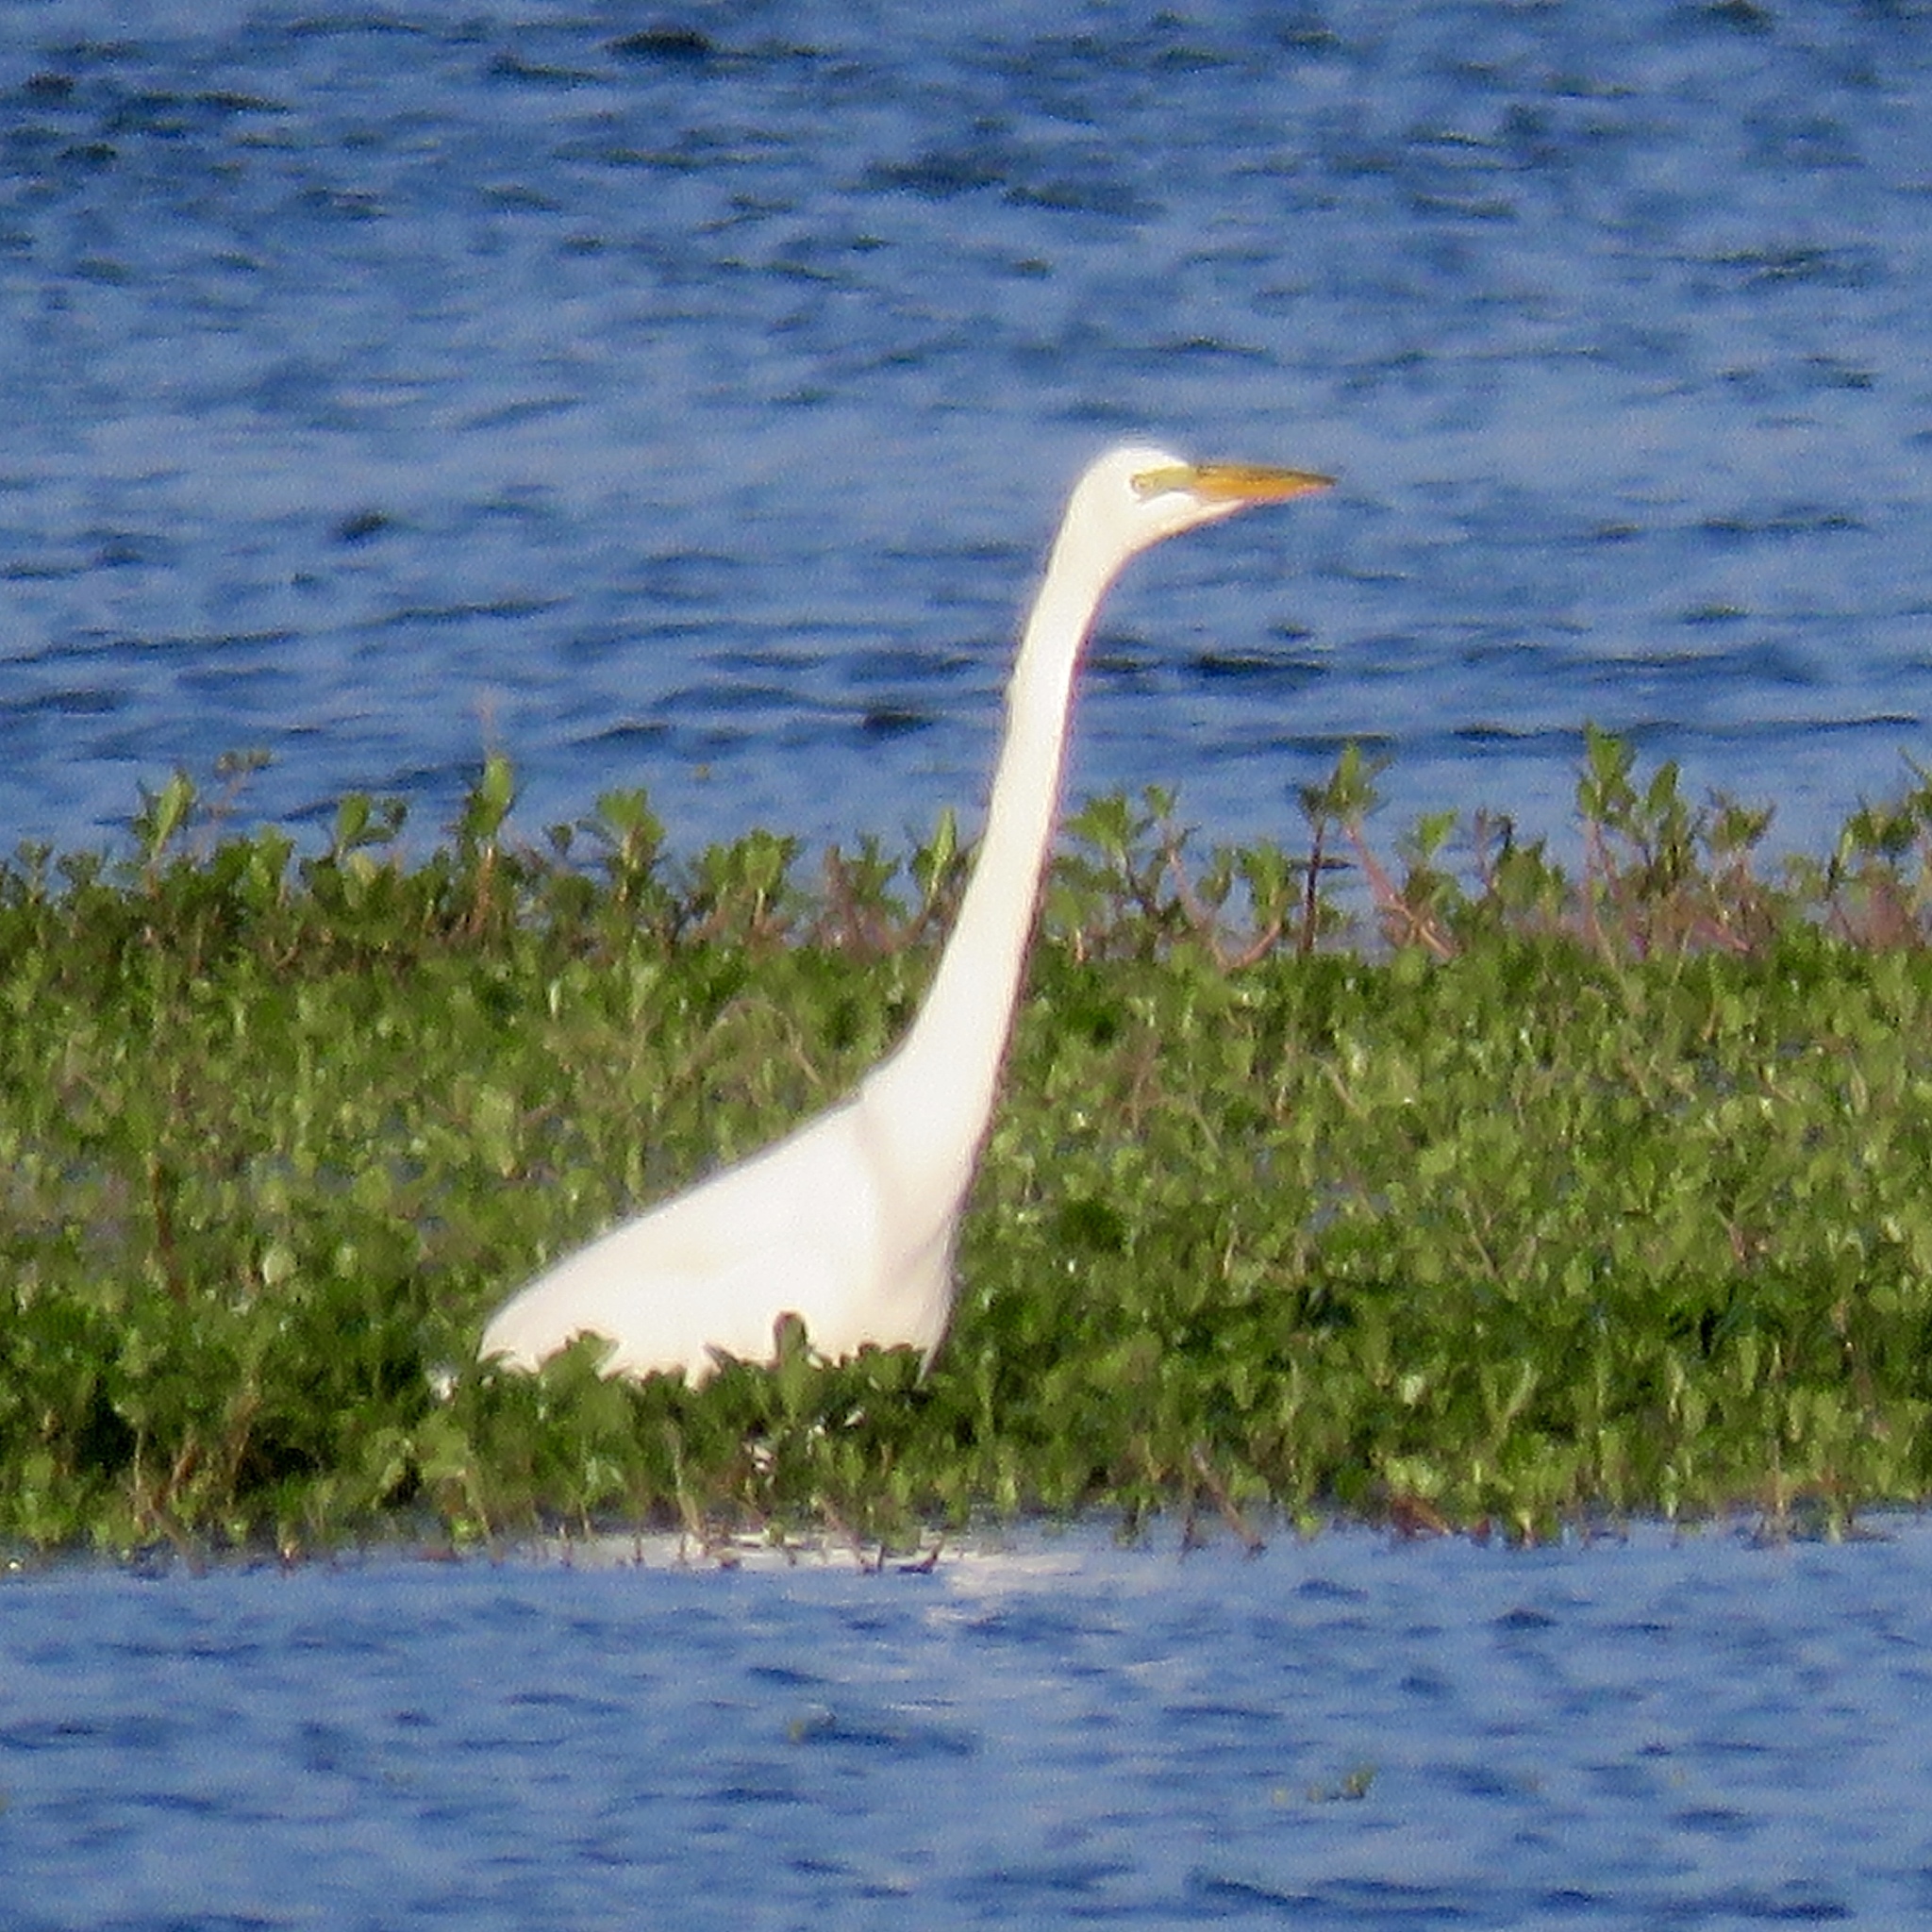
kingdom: Animalia
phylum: Chordata
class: Aves
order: Pelecaniformes
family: Ardeidae
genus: Ardea
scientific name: Ardea alba
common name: Great egret
